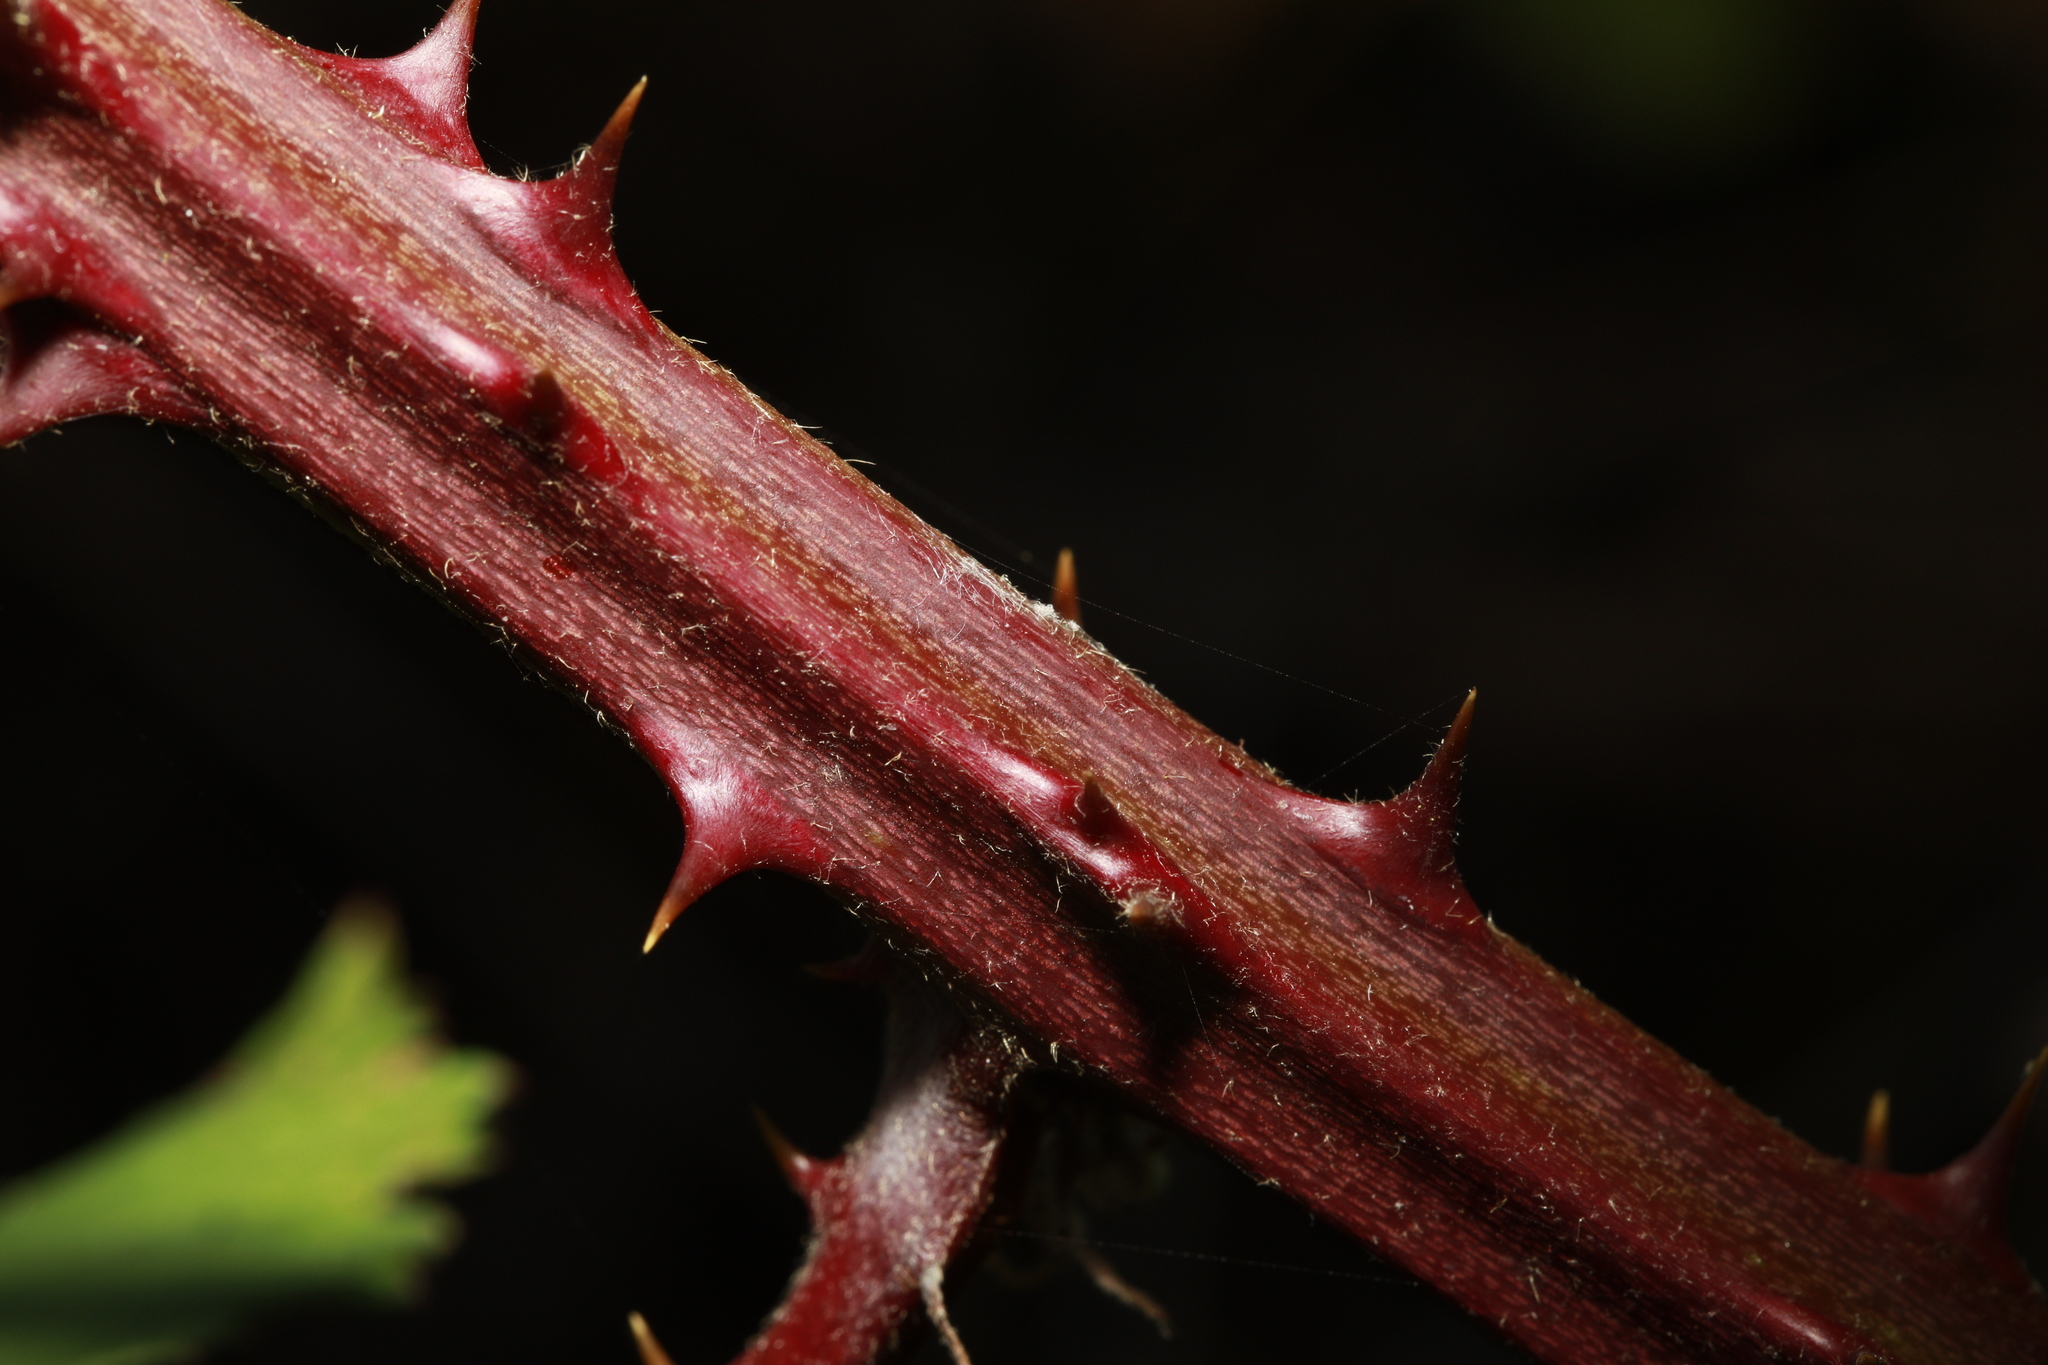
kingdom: Plantae
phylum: Tracheophyta
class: Magnoliopsida
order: Rosales
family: Rosaceae
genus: Rubus
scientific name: Rubus armeniacus
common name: Himalayan blackberry
